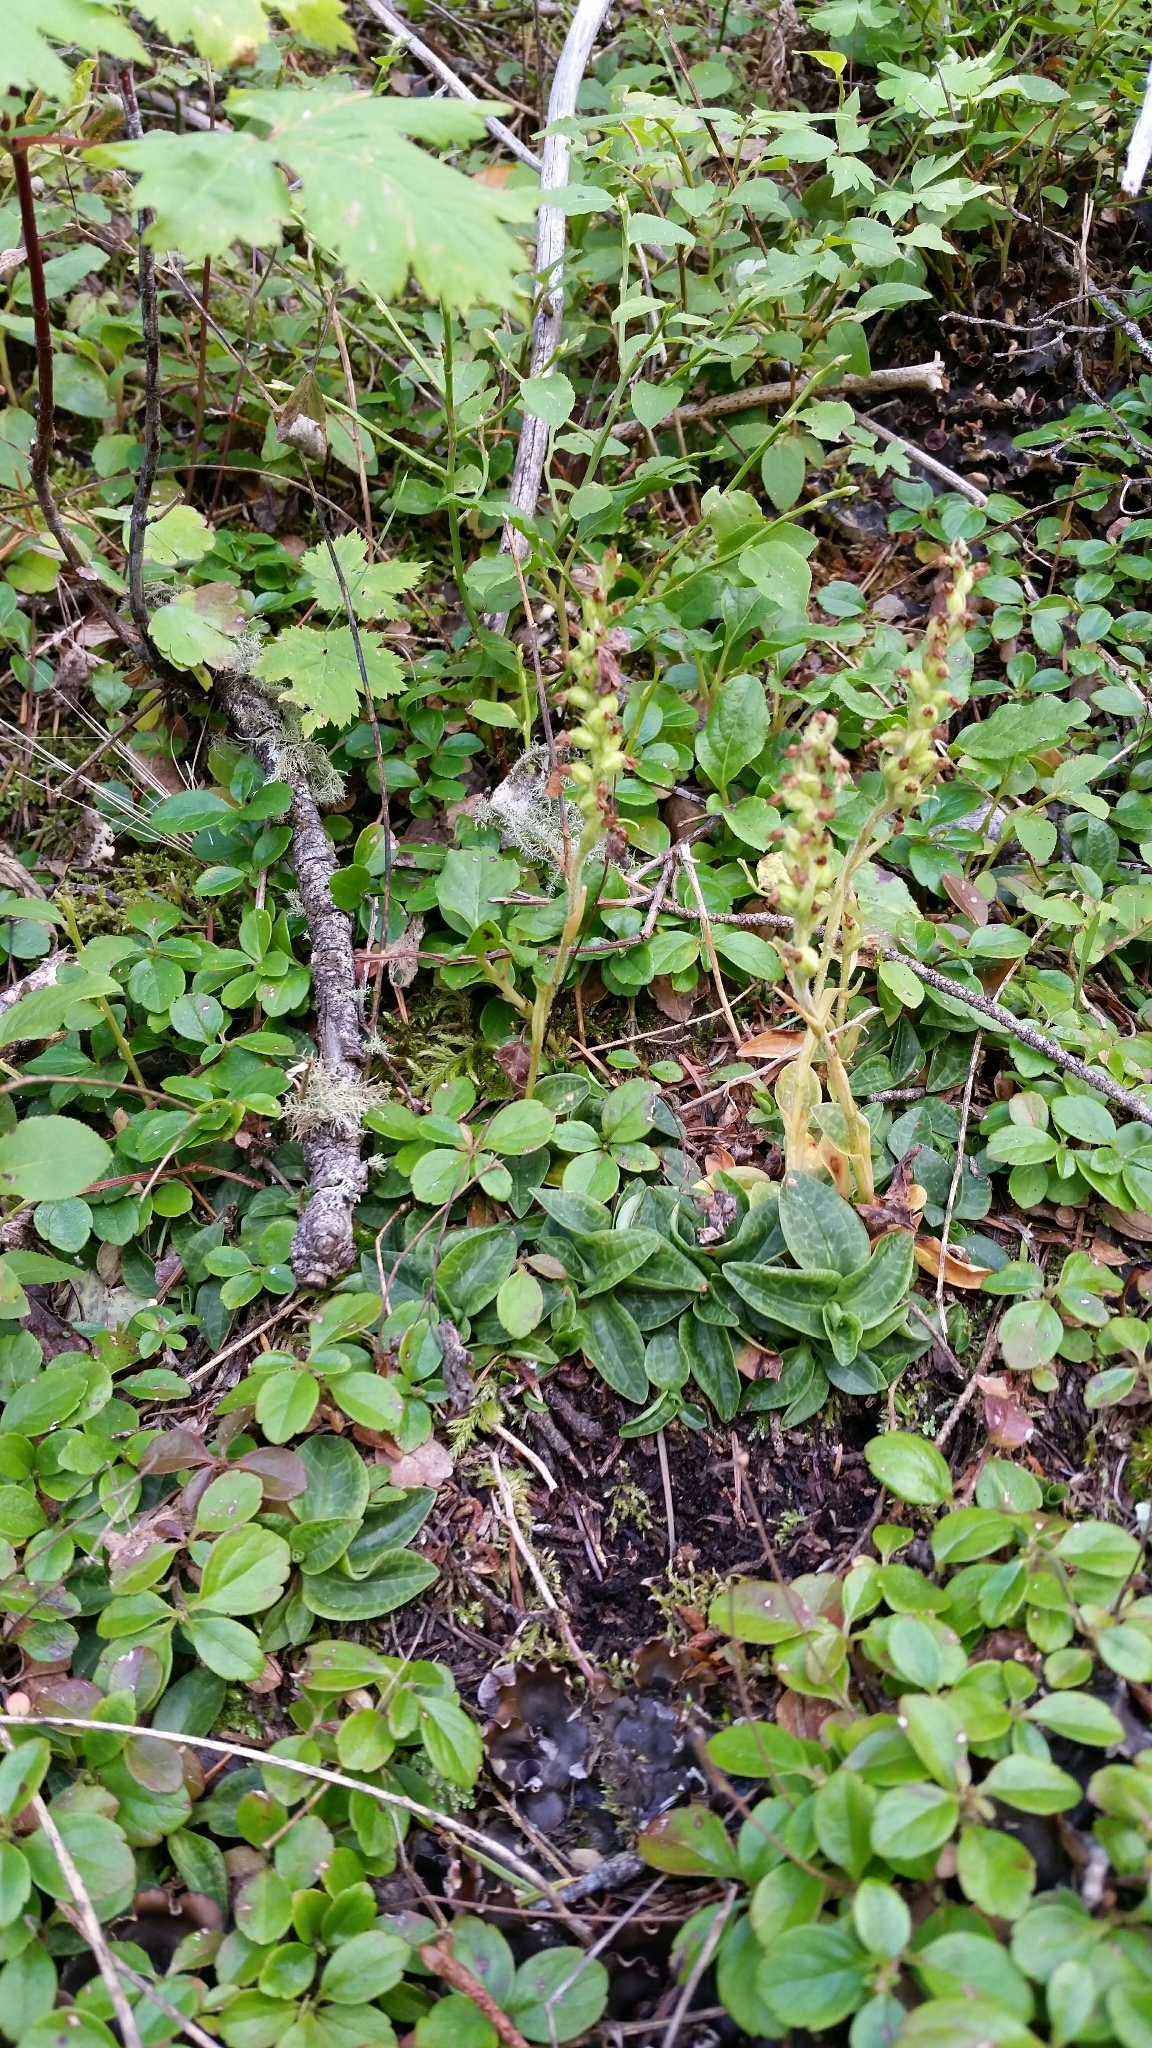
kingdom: Plantae
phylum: Tracheophyta
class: Liliopsida
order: Asparagales
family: Orchidaceae
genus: Goodyera
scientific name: Goodyera repens
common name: Creeping lady's-tresses
